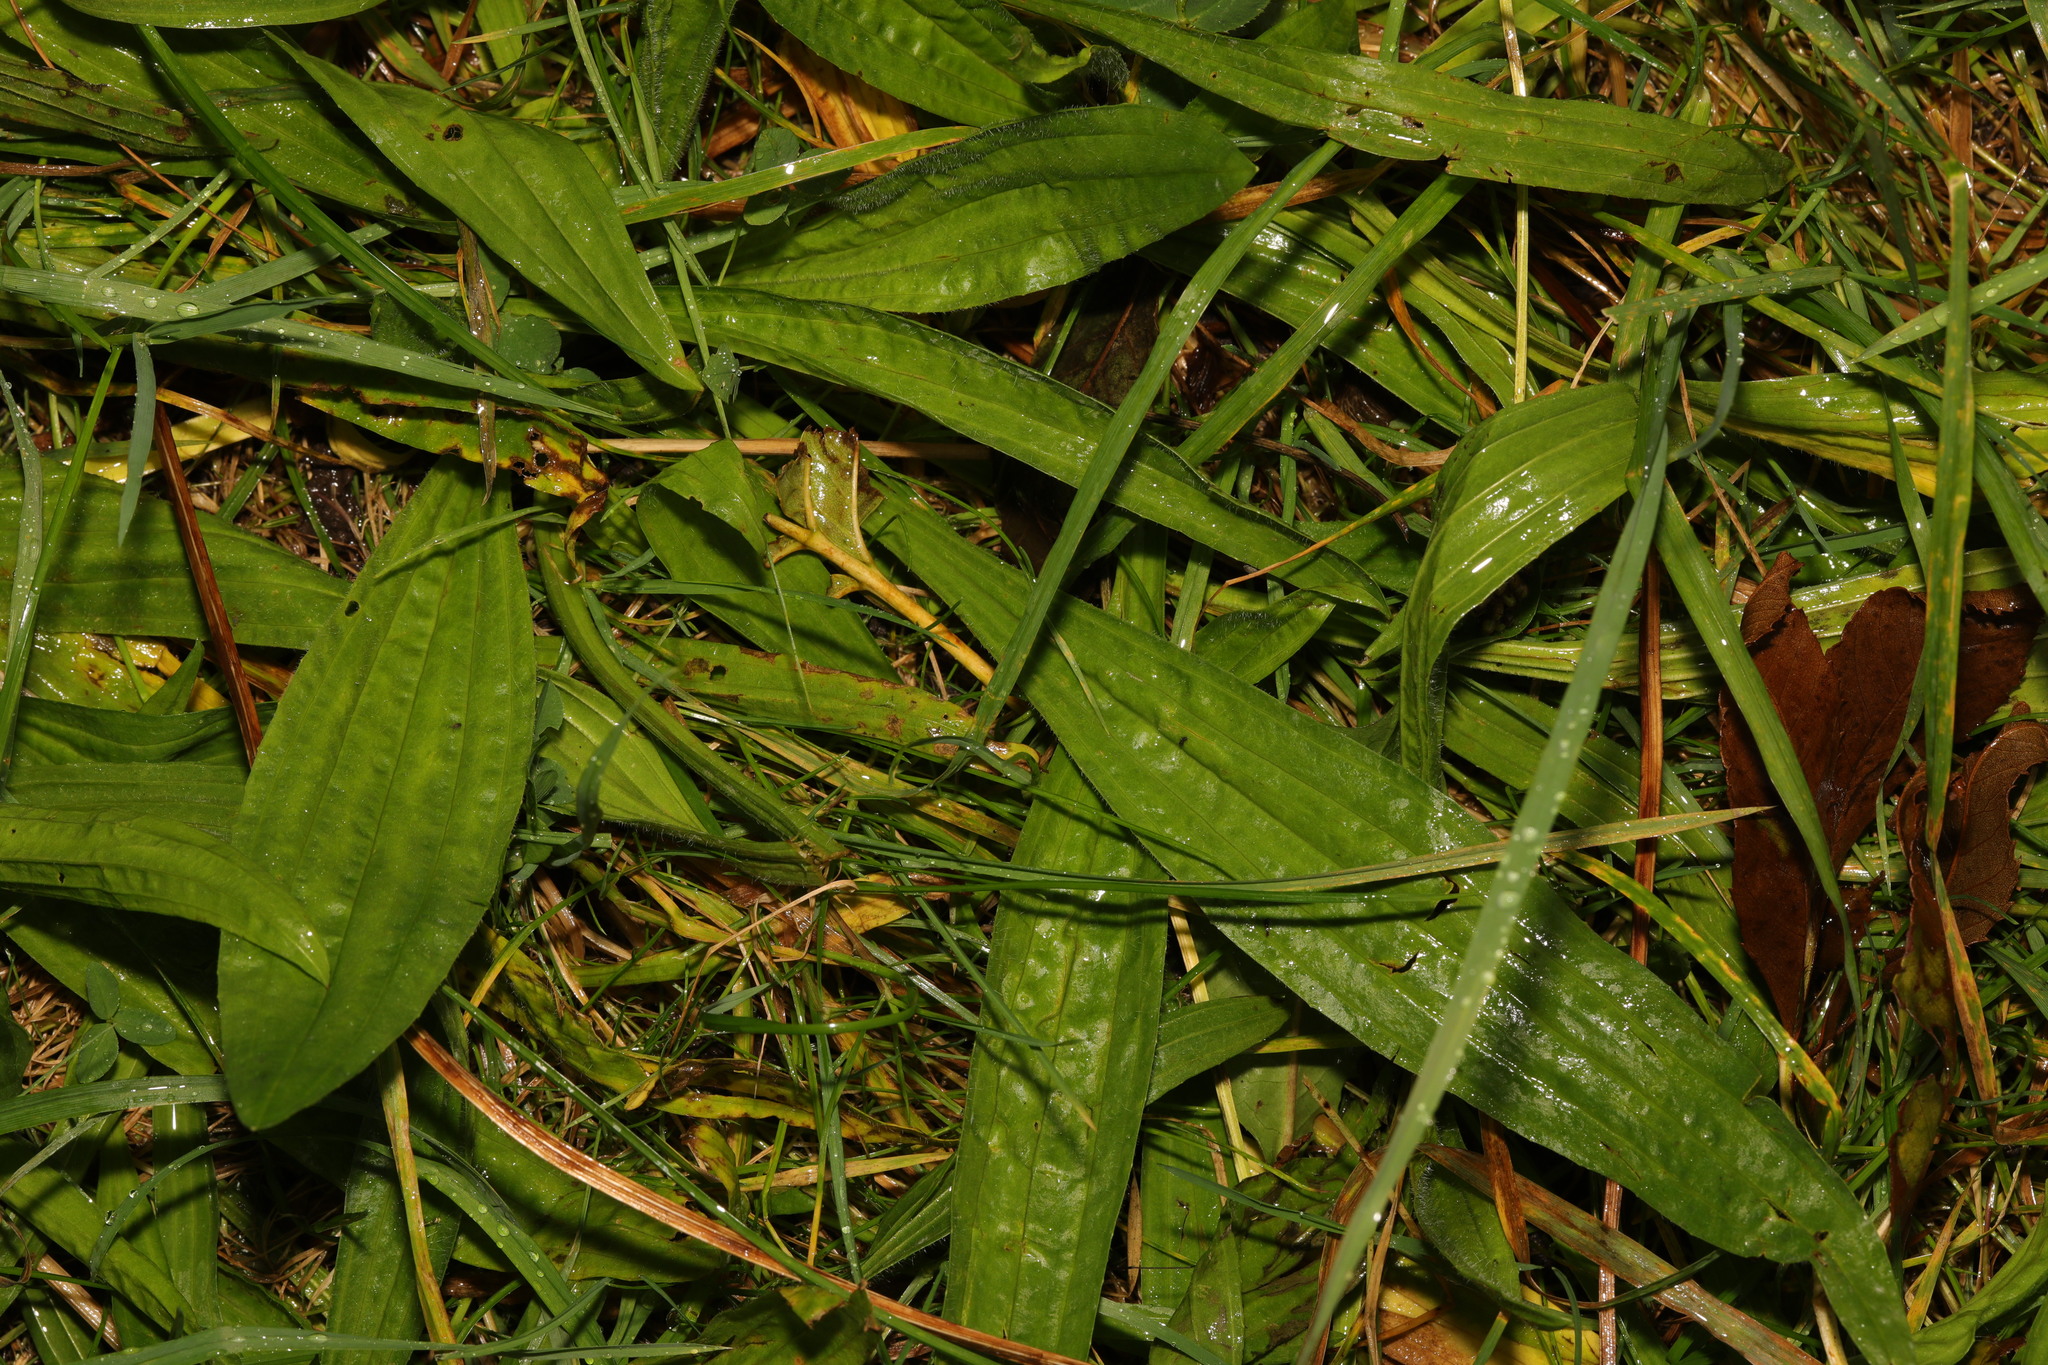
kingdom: Plantae
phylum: Tracheophyta
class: Magnoliopsida
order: Lamiales
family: Plantaginaceae
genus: Plantago
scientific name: Plantago lanceolata
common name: Ribwort plantain
